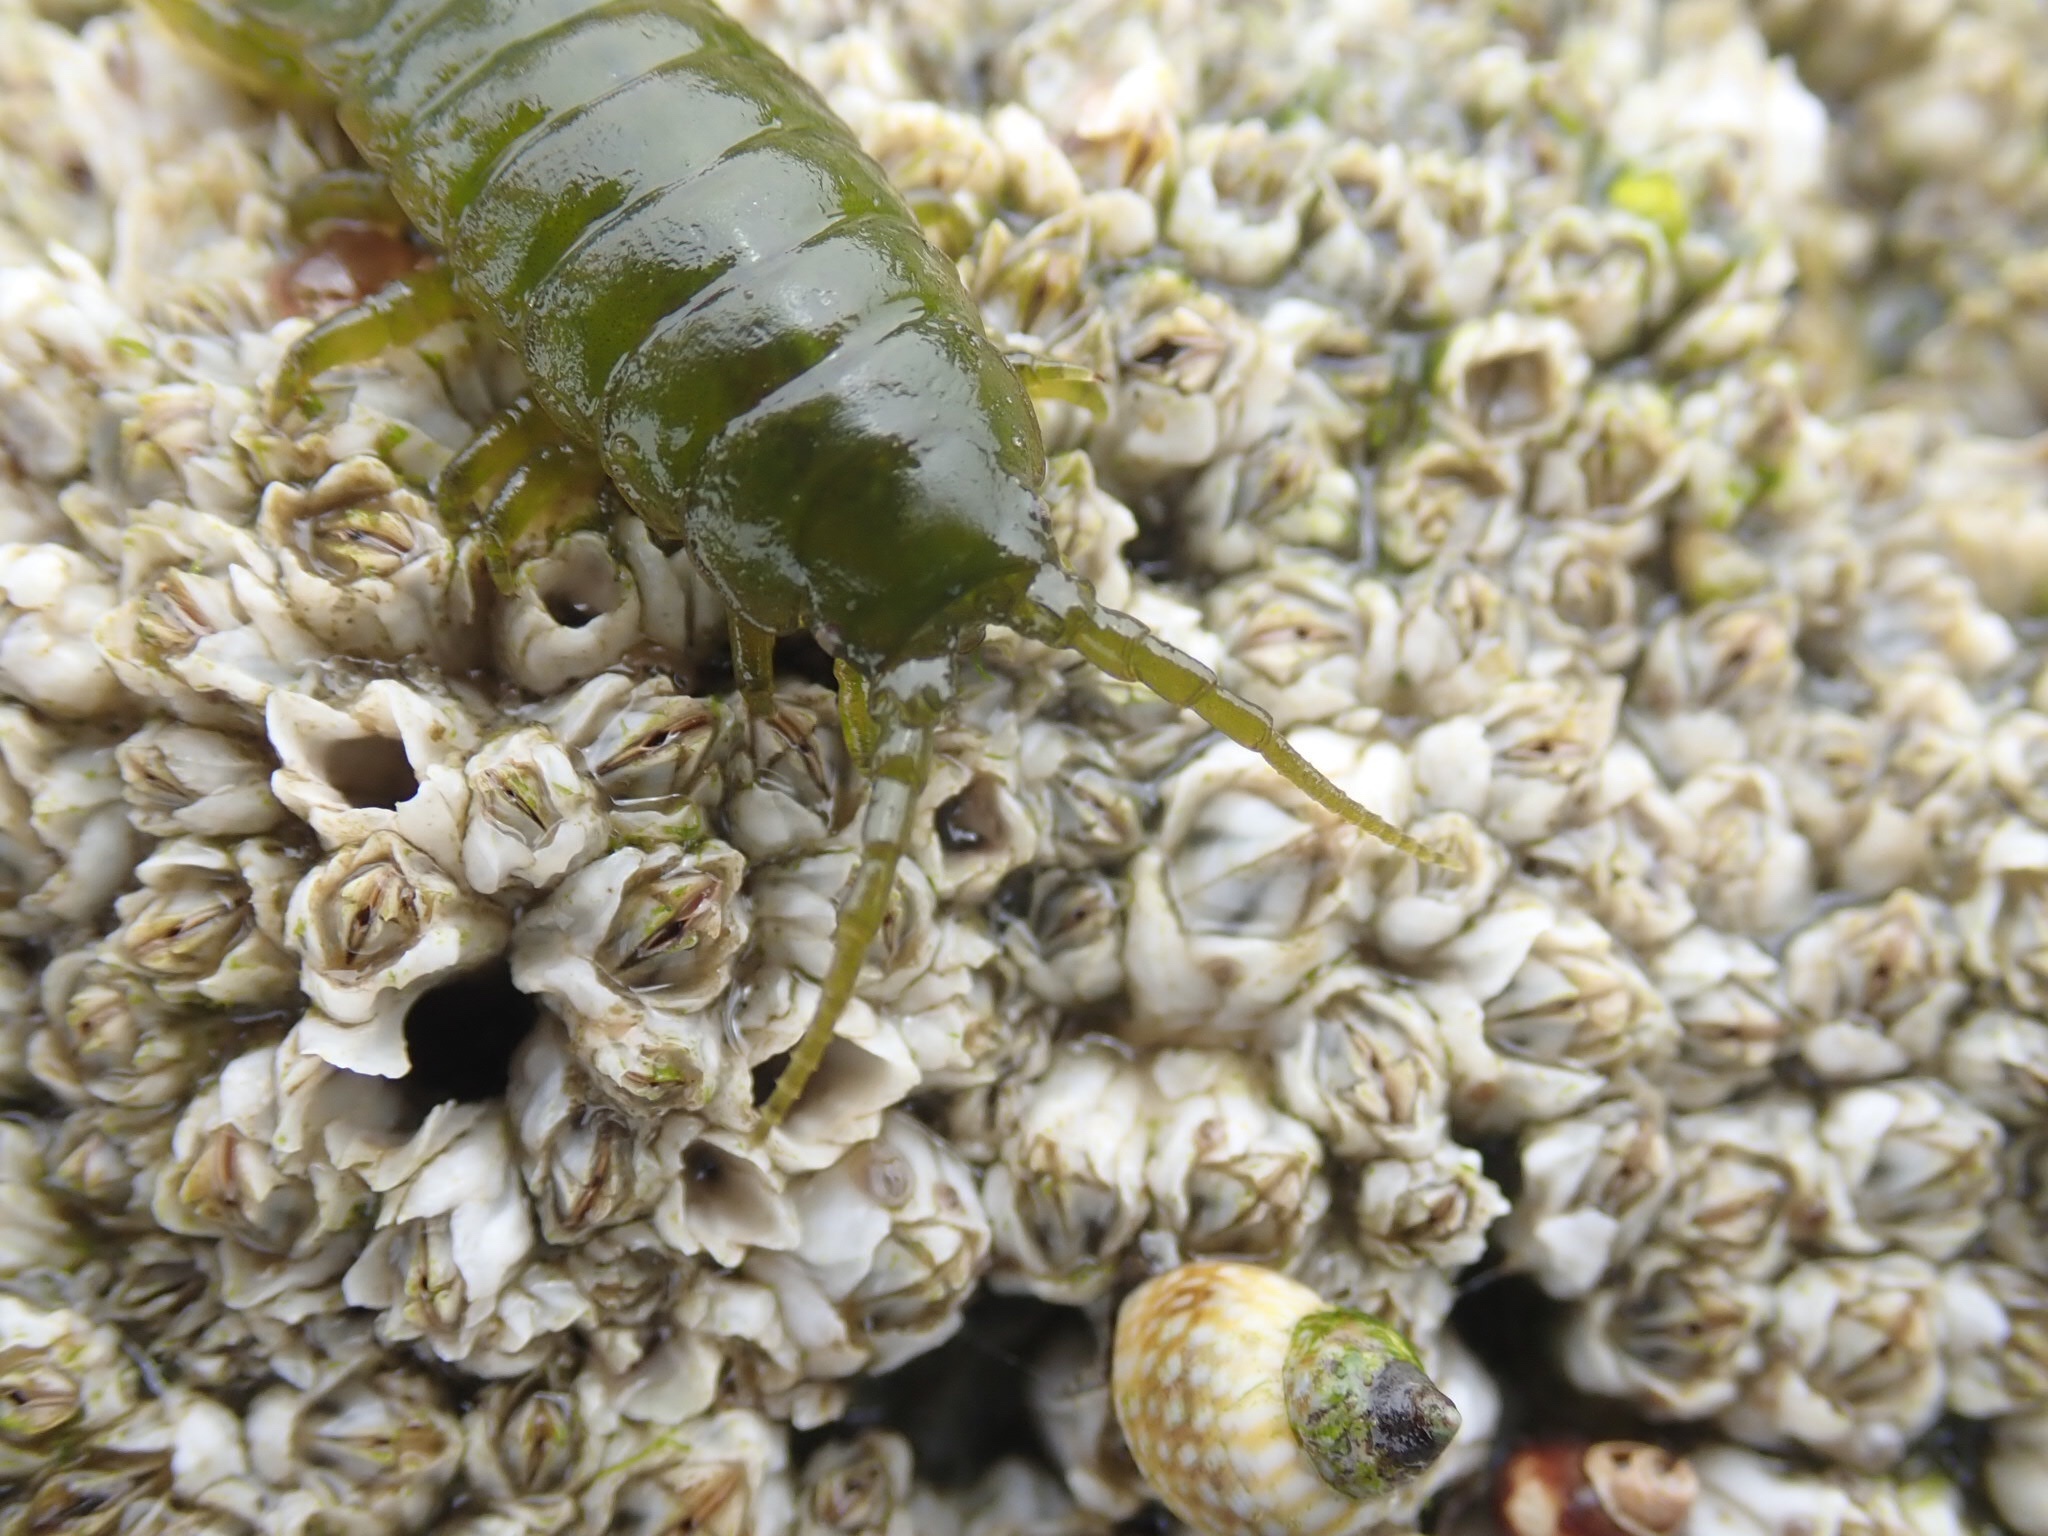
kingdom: Animalia
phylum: Arthropoda
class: Malacostraca
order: Isopoda
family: Idoteidae
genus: Pentidotea
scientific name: Pentidotea wosnesenskii
